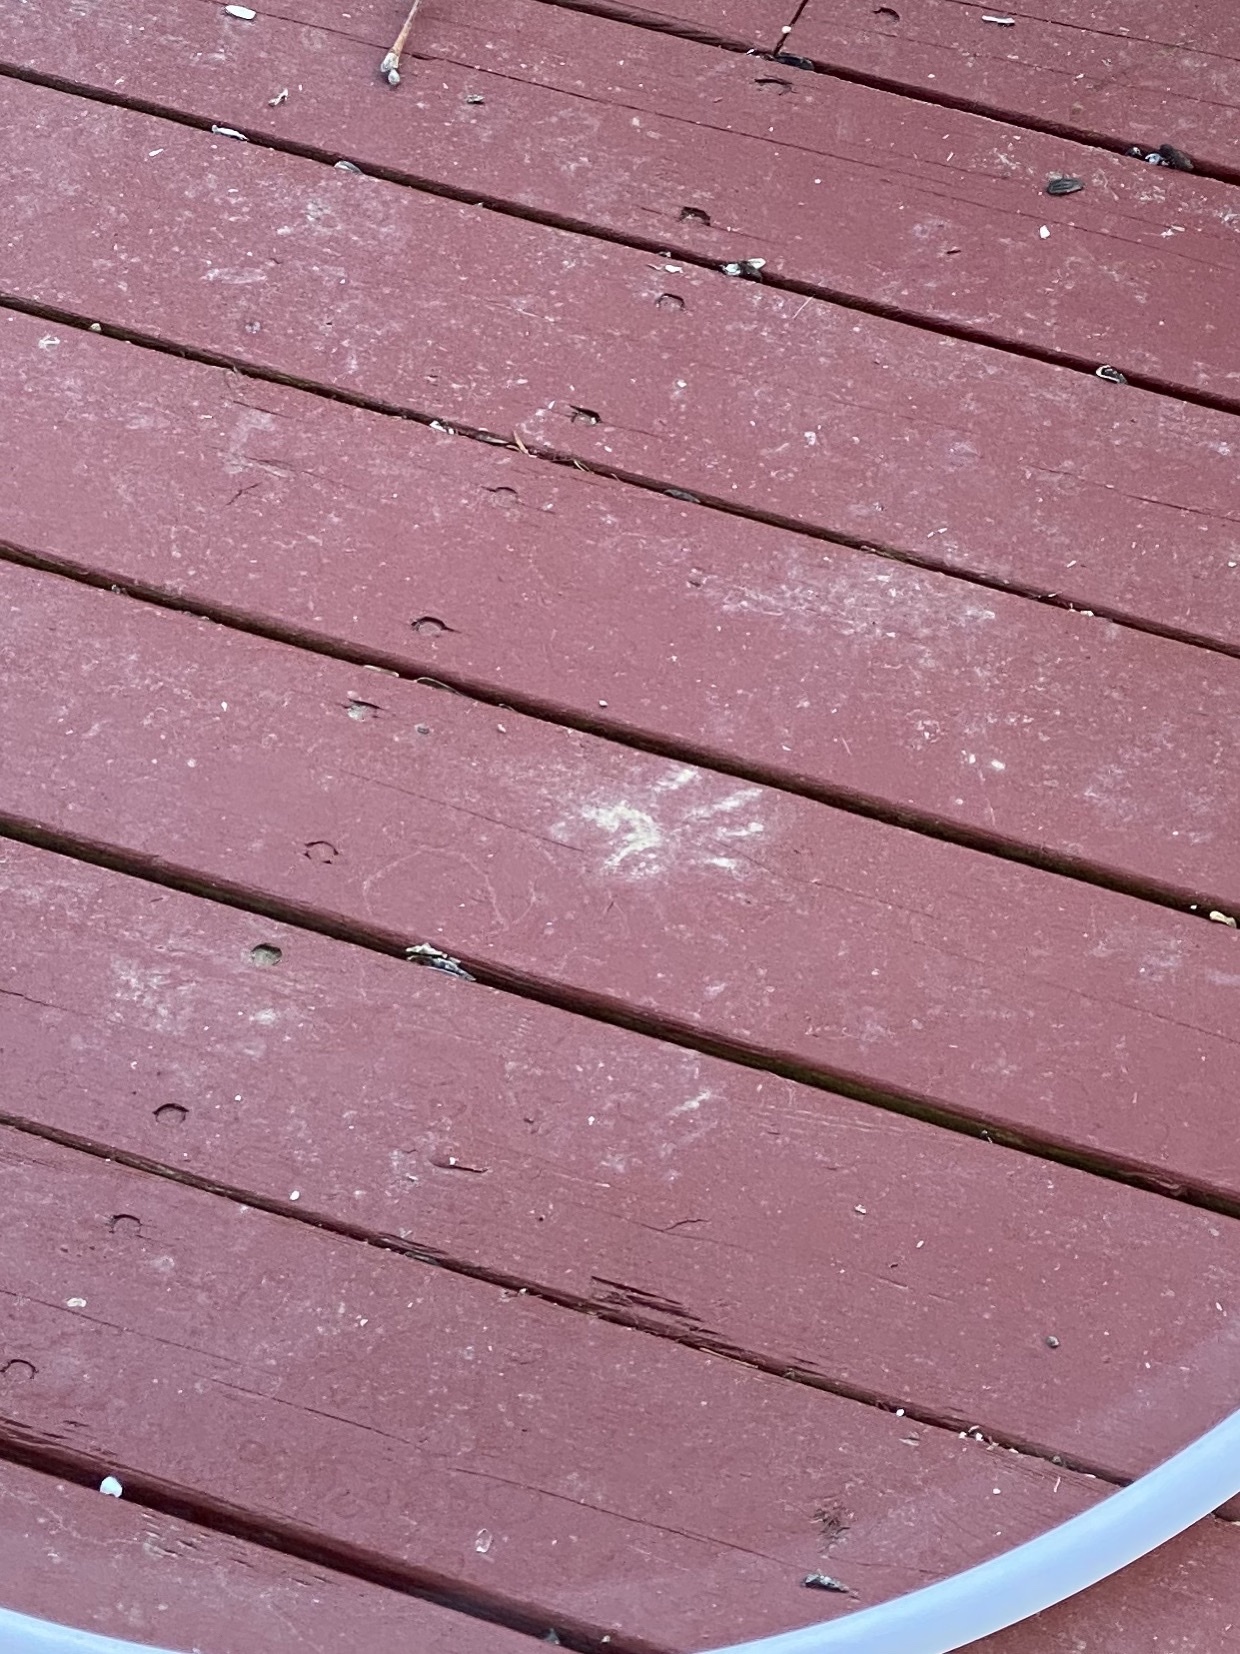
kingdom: Animalia
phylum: Chordata
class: Mammalia
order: Carnivora
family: Procyonidae
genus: Procyon
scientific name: Procyon lotor
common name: Raccoon
